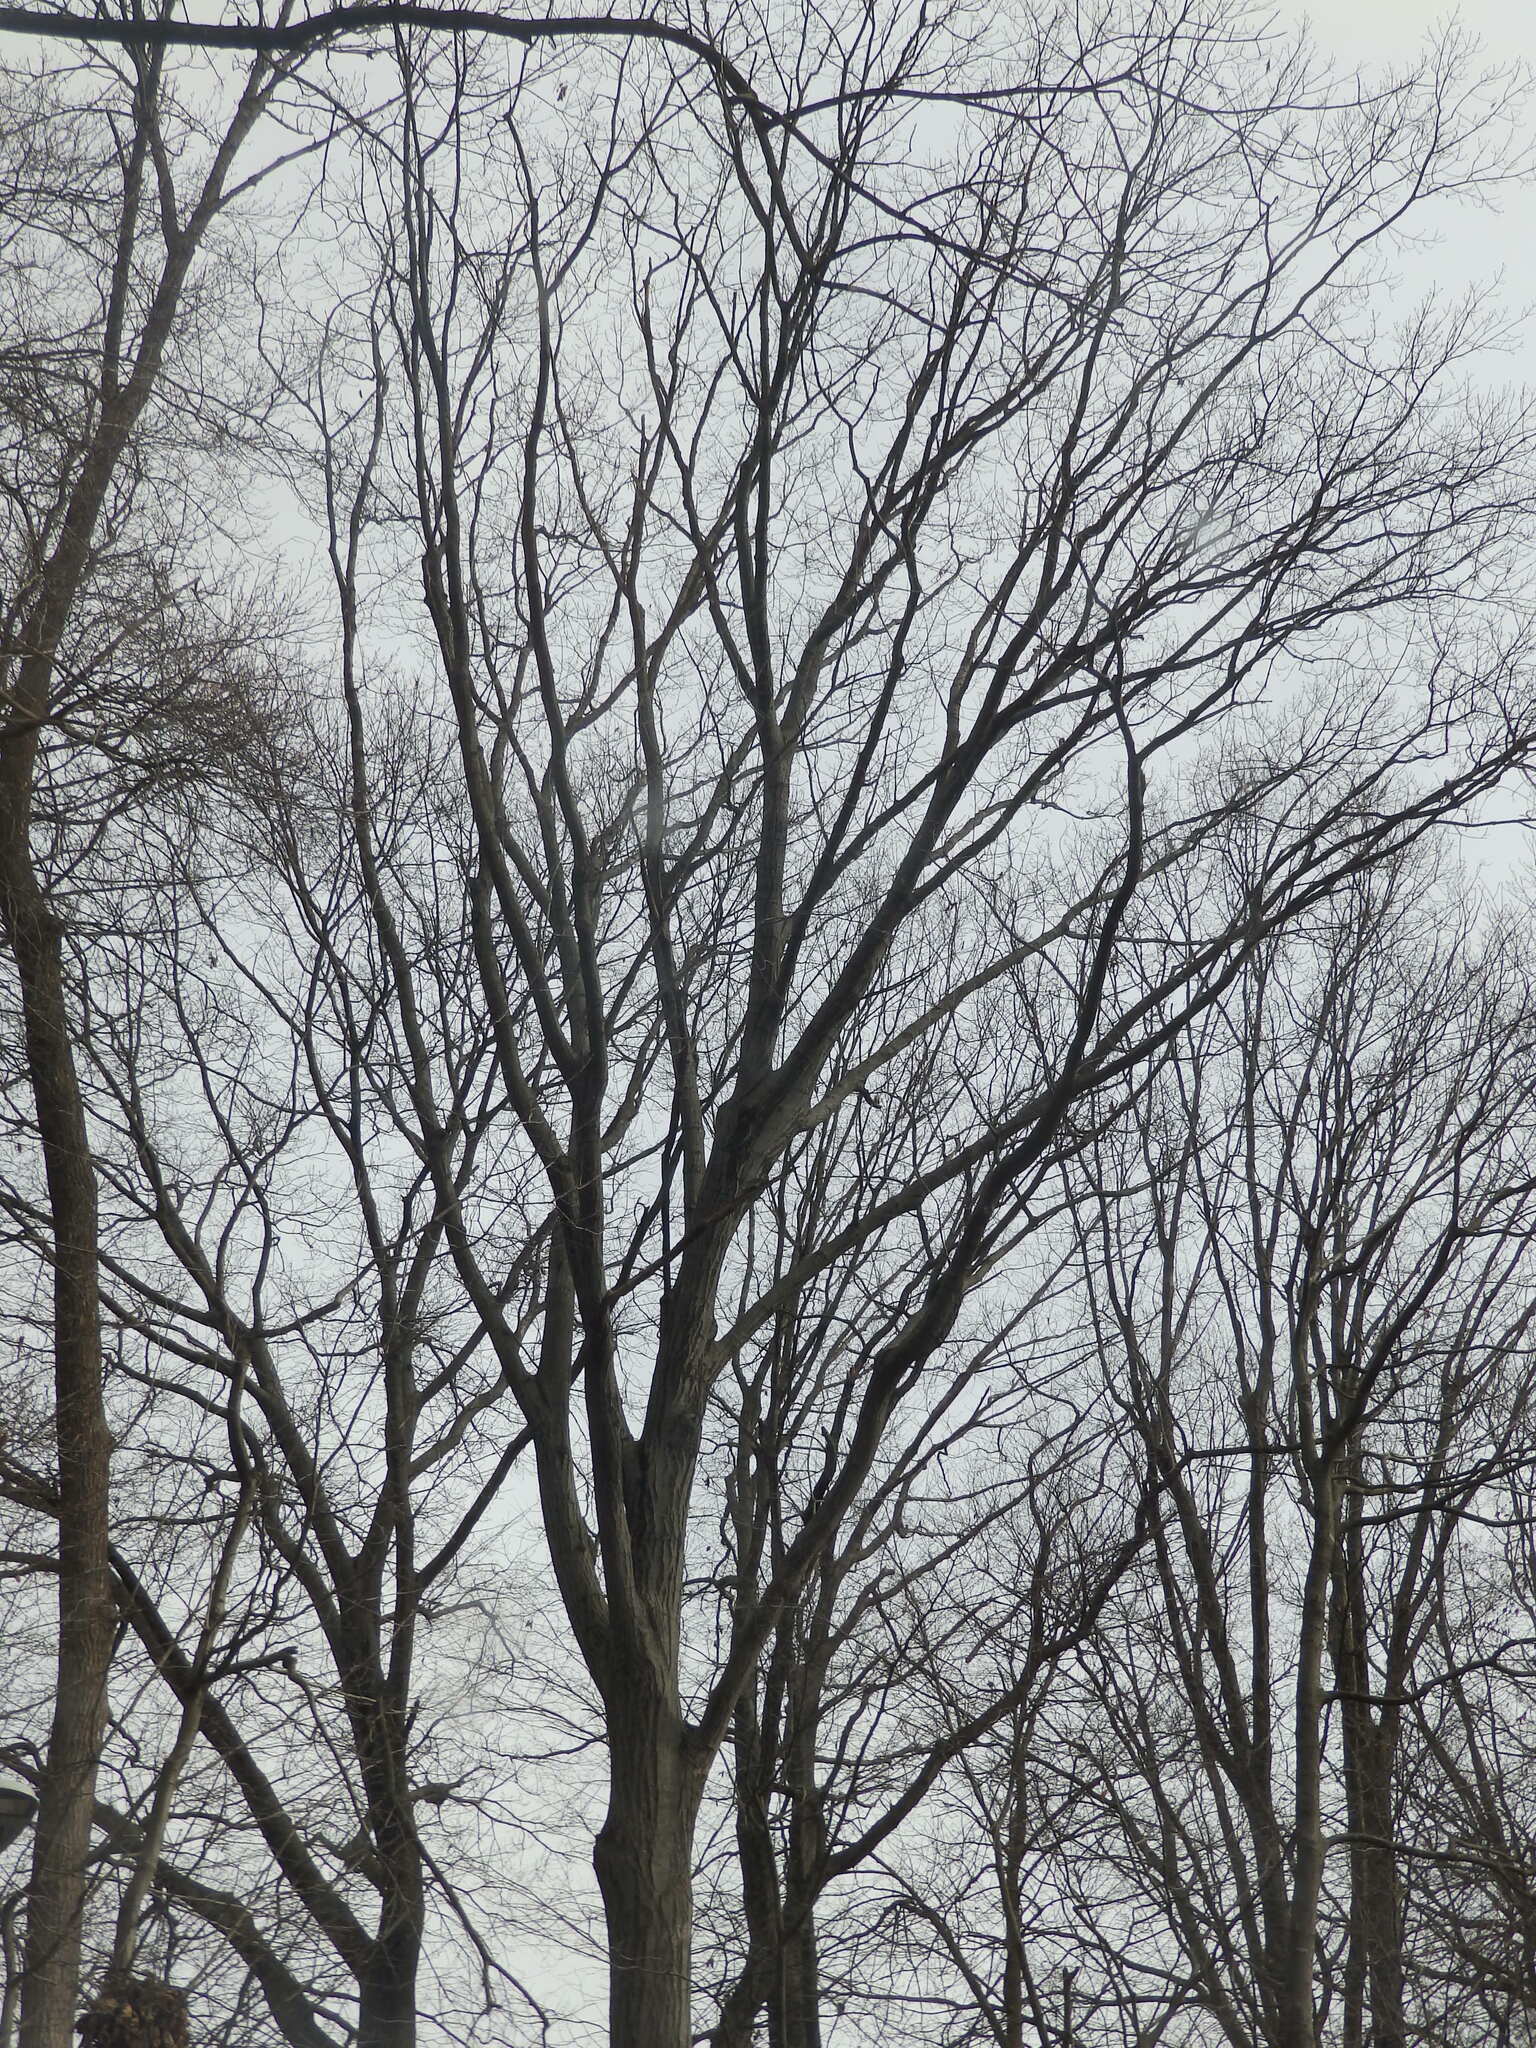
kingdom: Plantae
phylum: Tracheophyta
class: Magnoliopsida
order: Fagales
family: Fagaceae
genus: Quercus
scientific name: Quercus rubra
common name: Red oak
